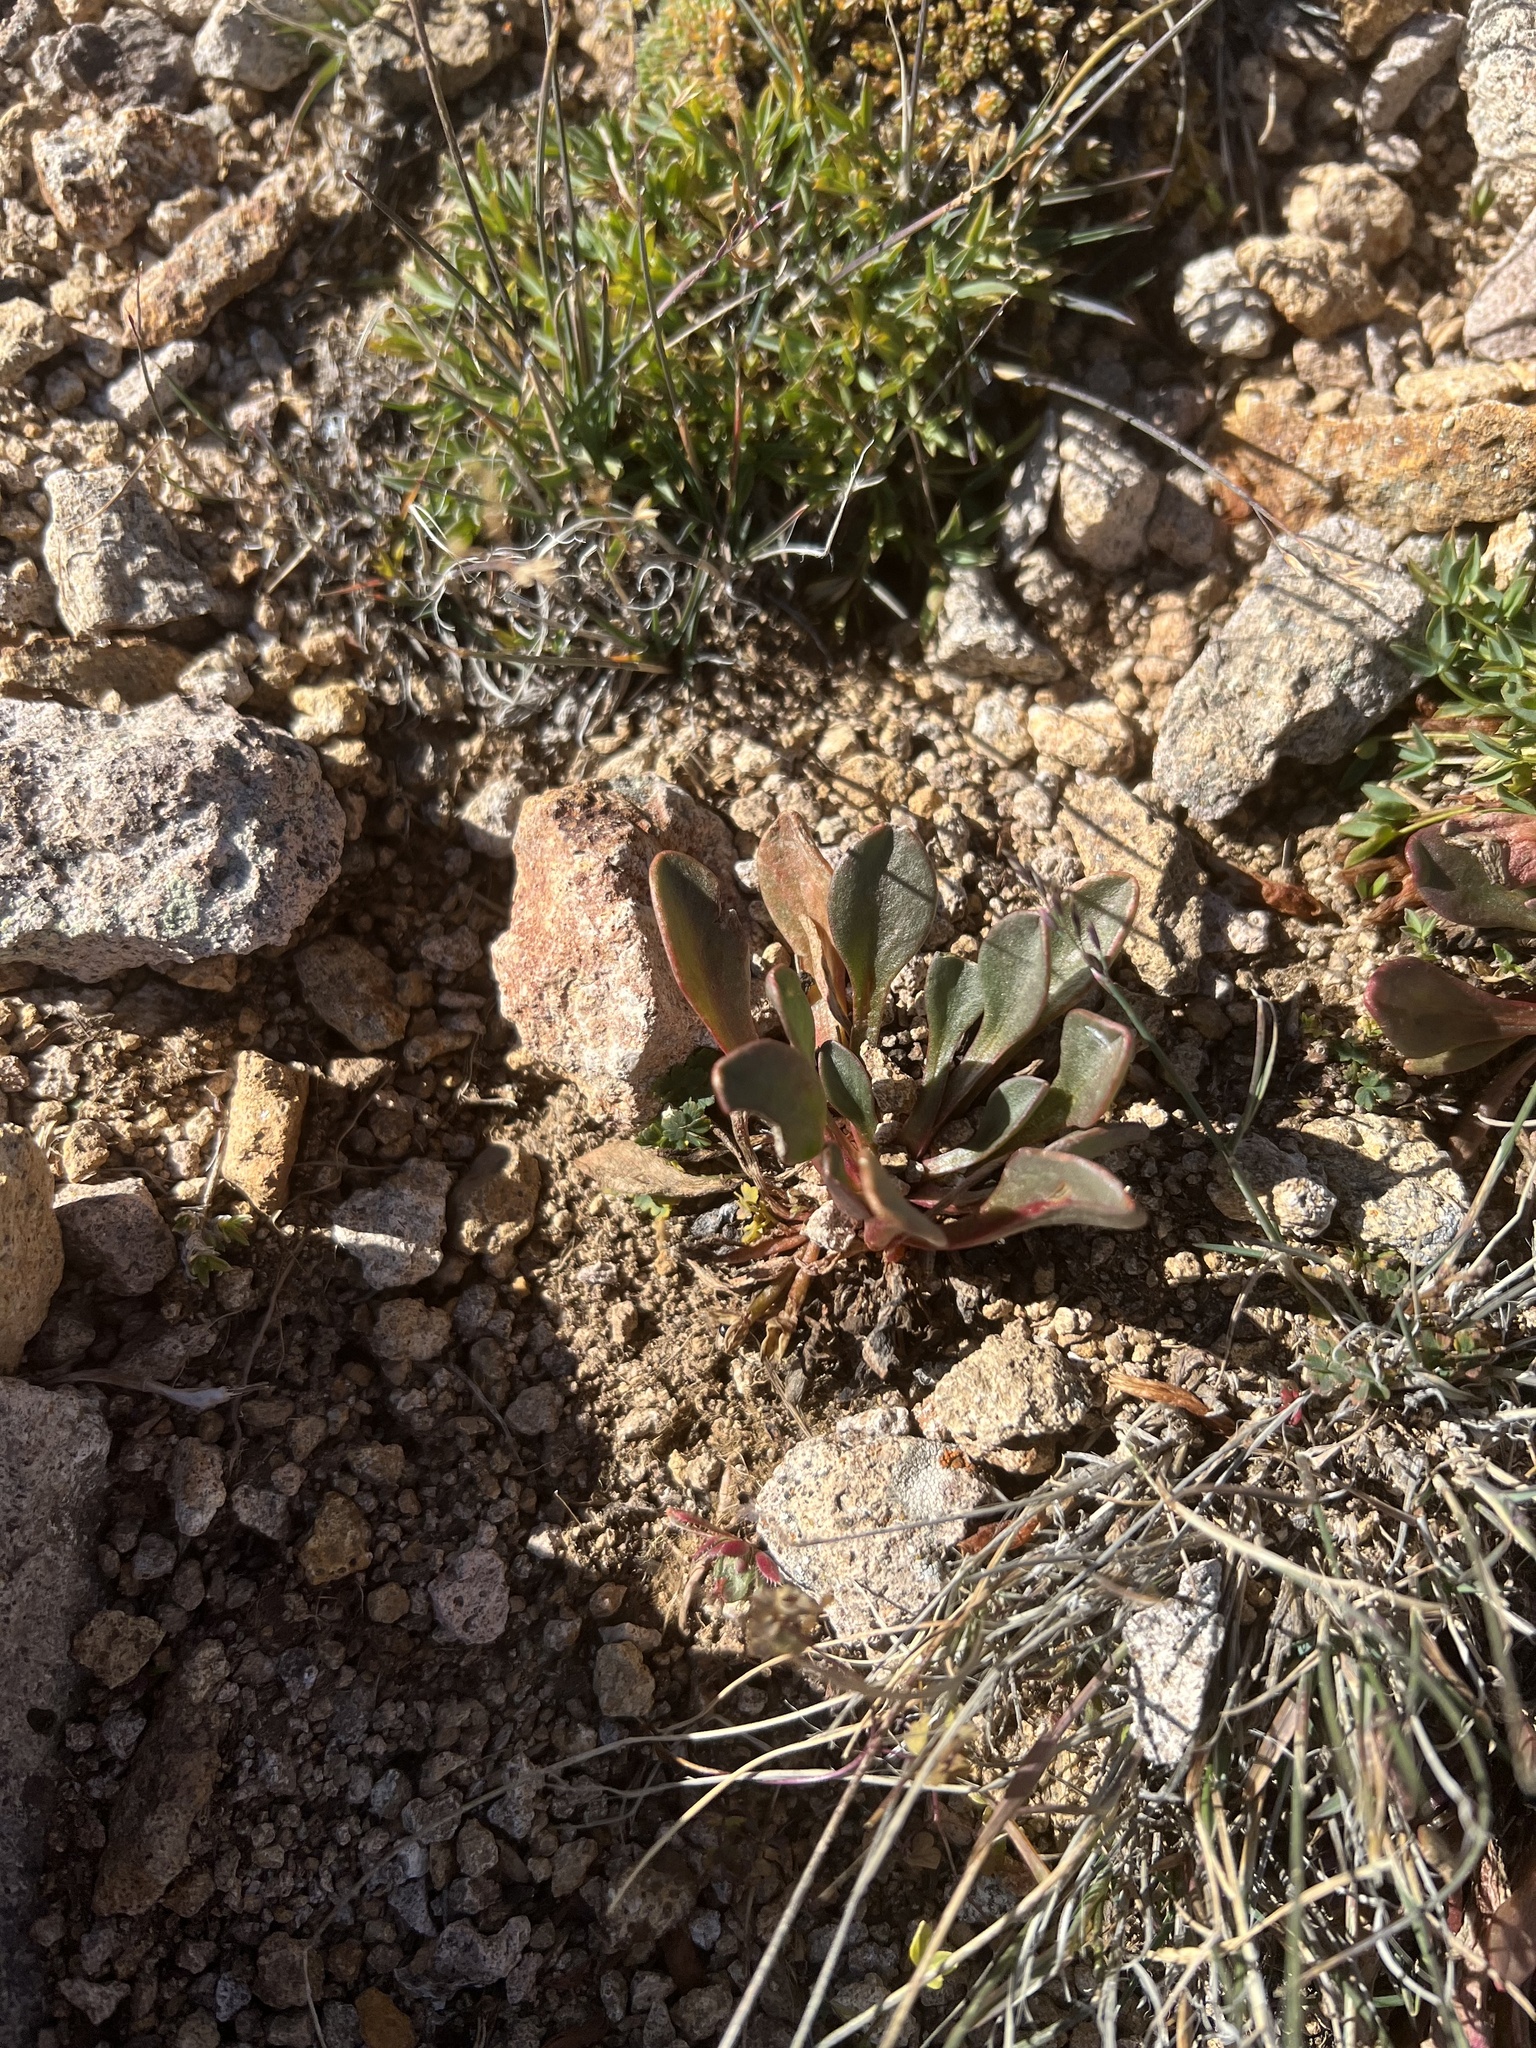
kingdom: Plantae
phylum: Tracheophyta
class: Magnoliopsida
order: Caryophyllales
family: Montiaceae
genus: Claytonia
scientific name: Claytonia megarhiza
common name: Alpine spring beauty
